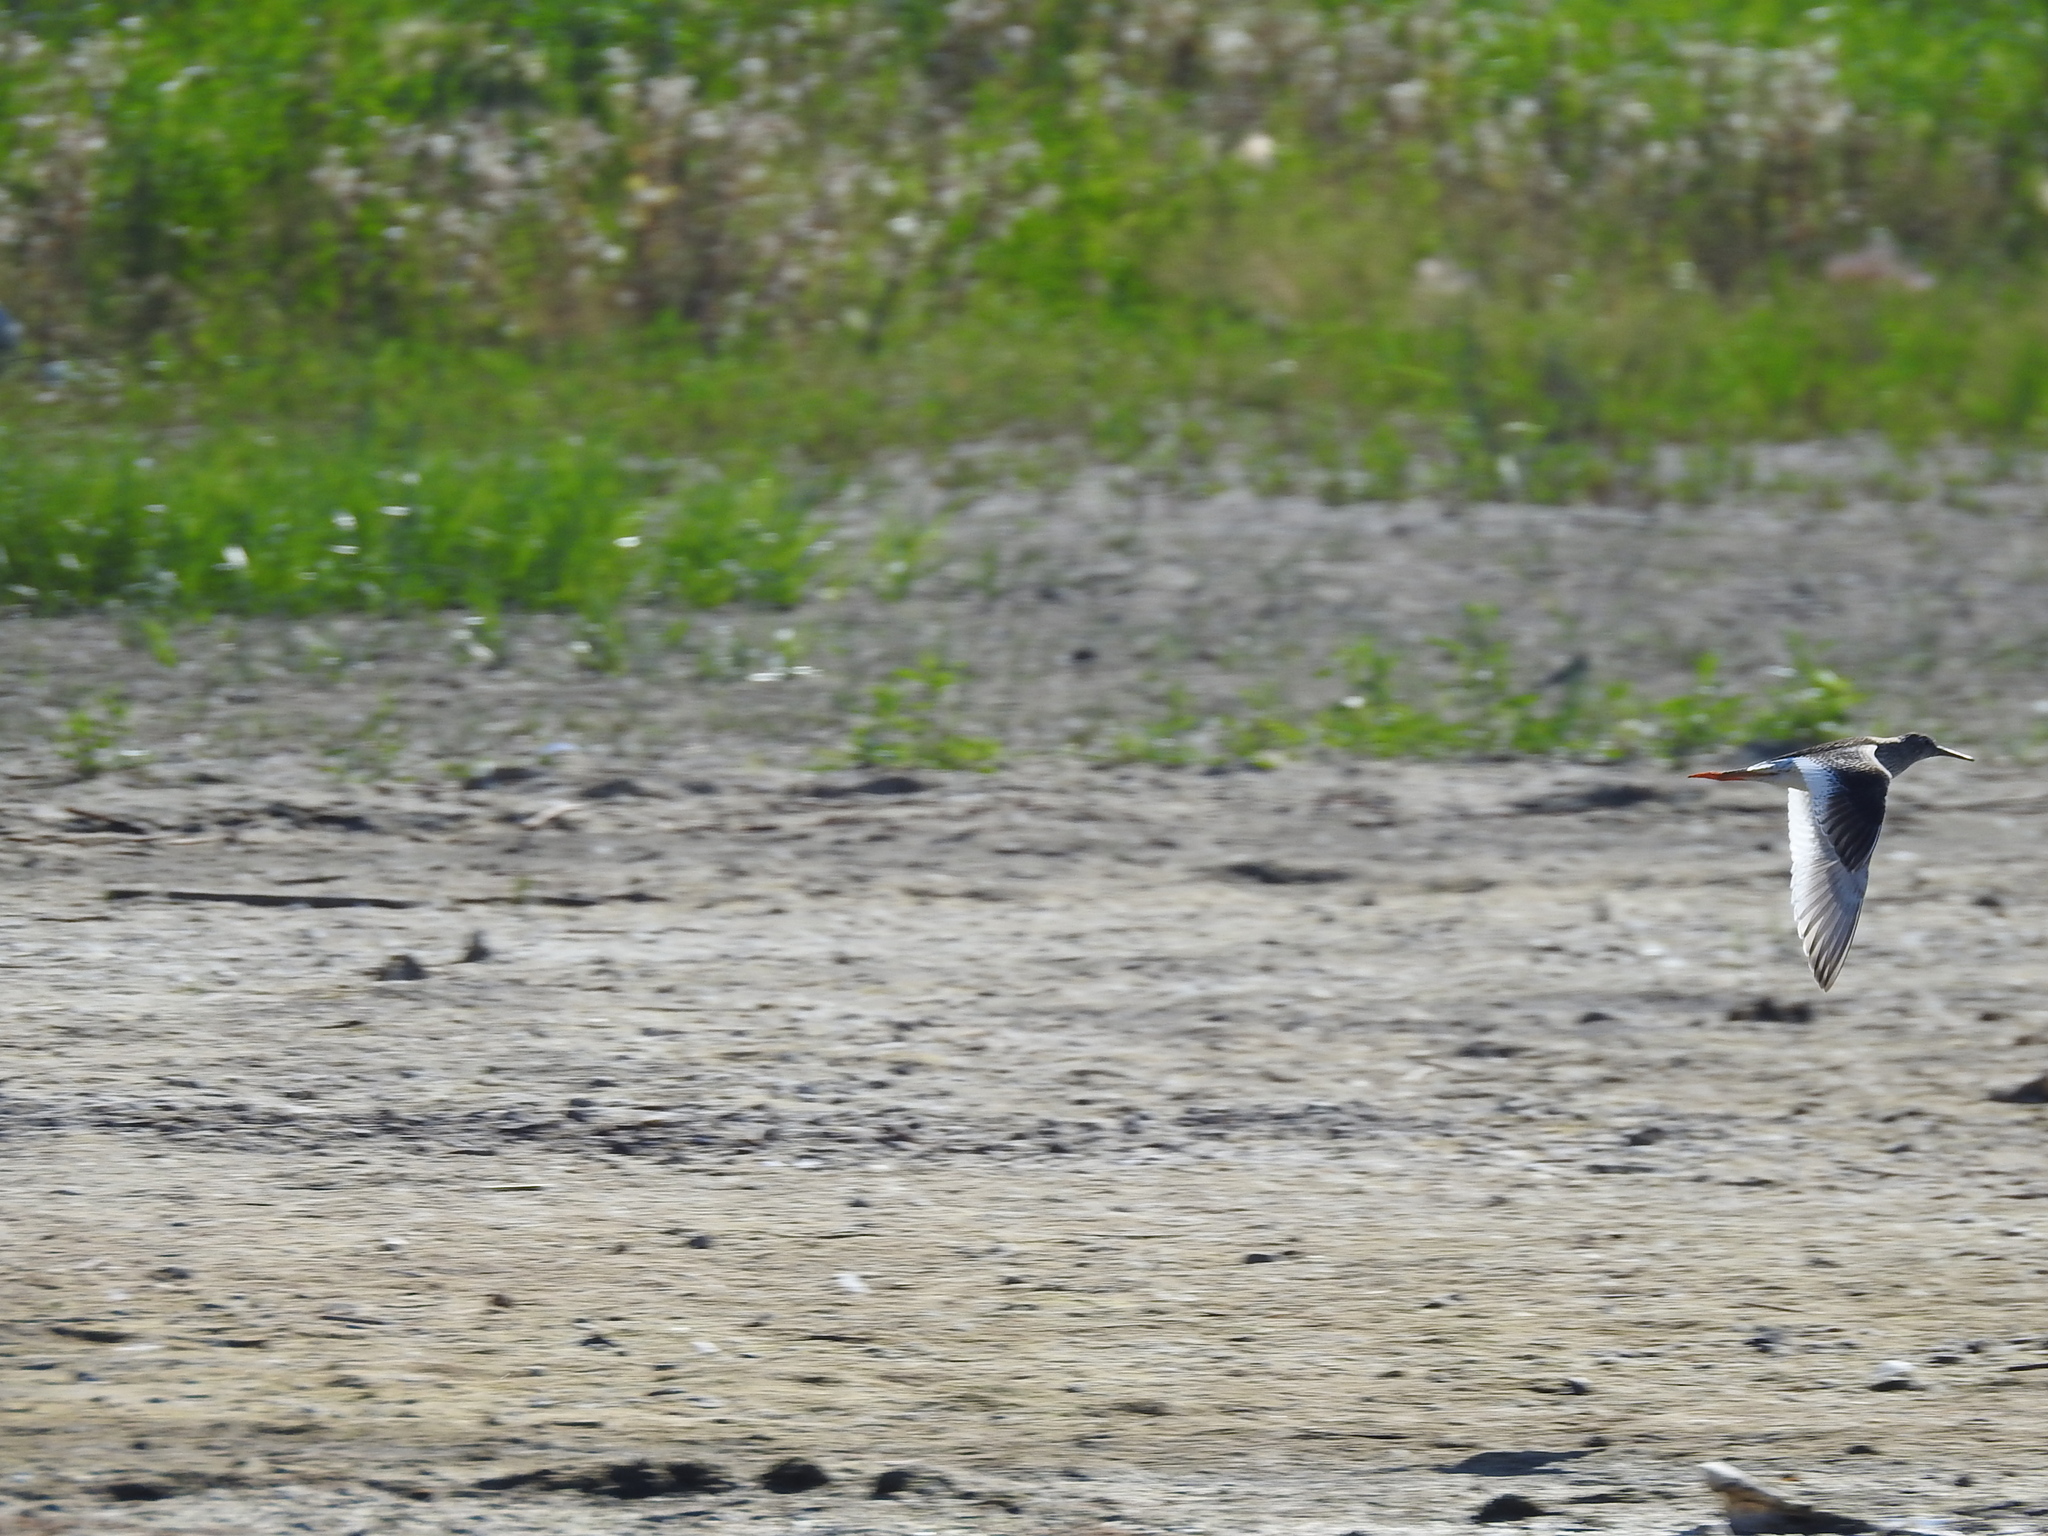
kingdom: Animalia
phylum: Chordata
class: Aves
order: Charadriiformes
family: Scolopacidae
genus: Tringa
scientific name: Tringa totanus
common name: Common redshank
